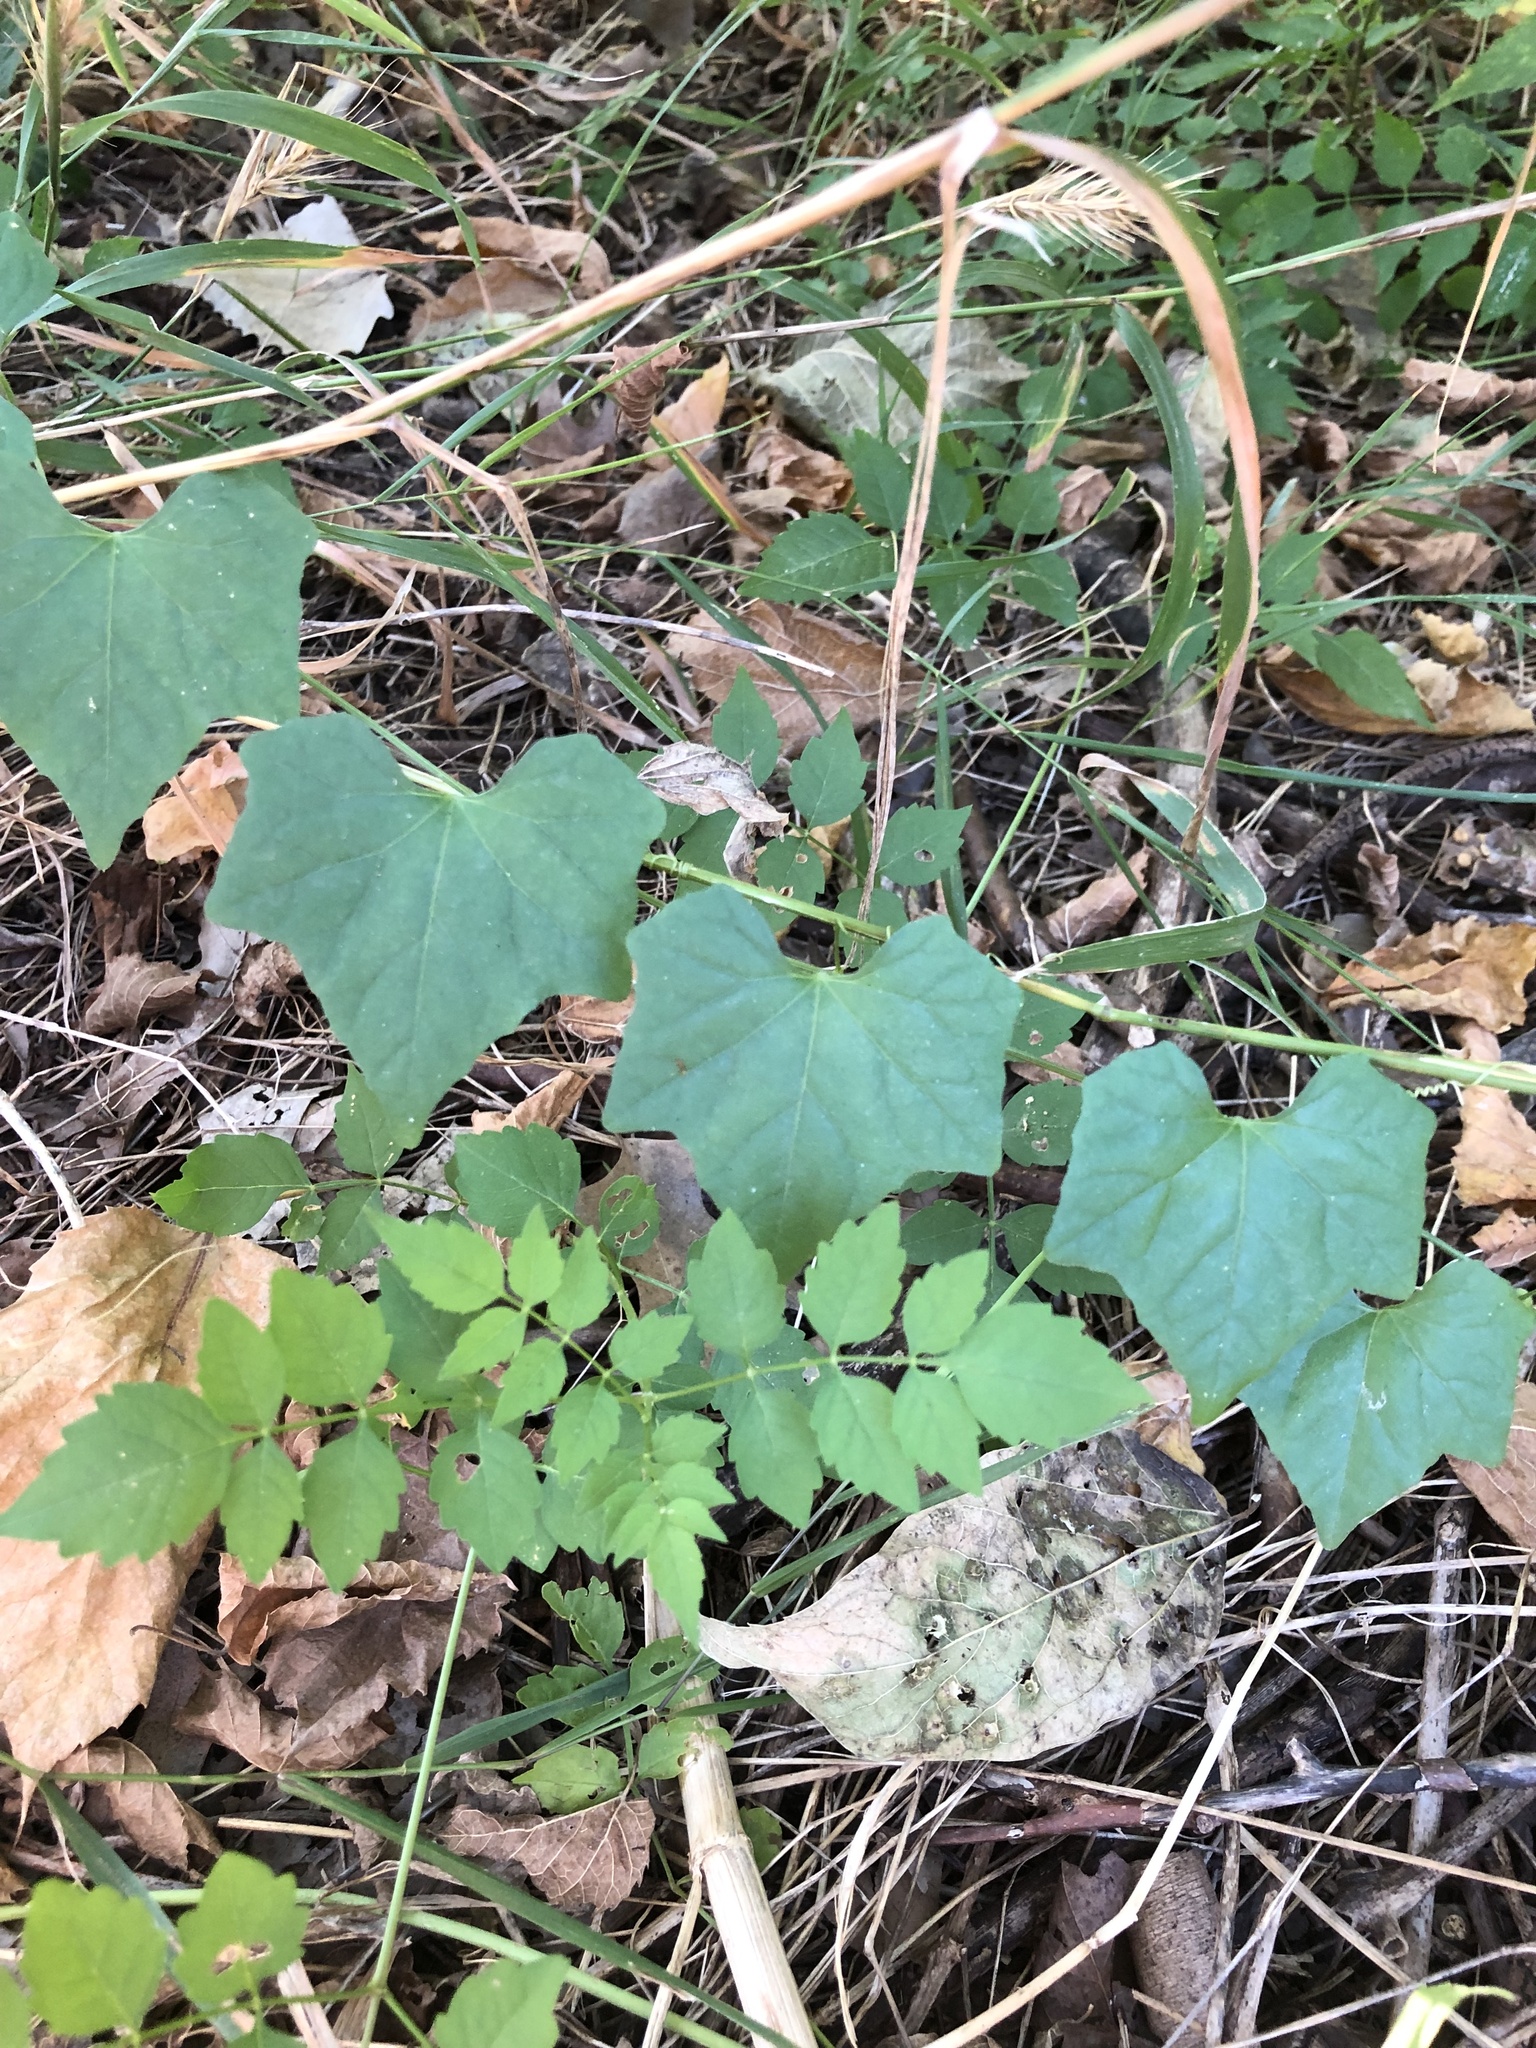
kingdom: Plantae
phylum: Tracheophyta
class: Magnoliopsida
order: Cucurbitales
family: Cucurbitaceae
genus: Melothria
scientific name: Melothria pendula
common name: Creeping-cucumber
